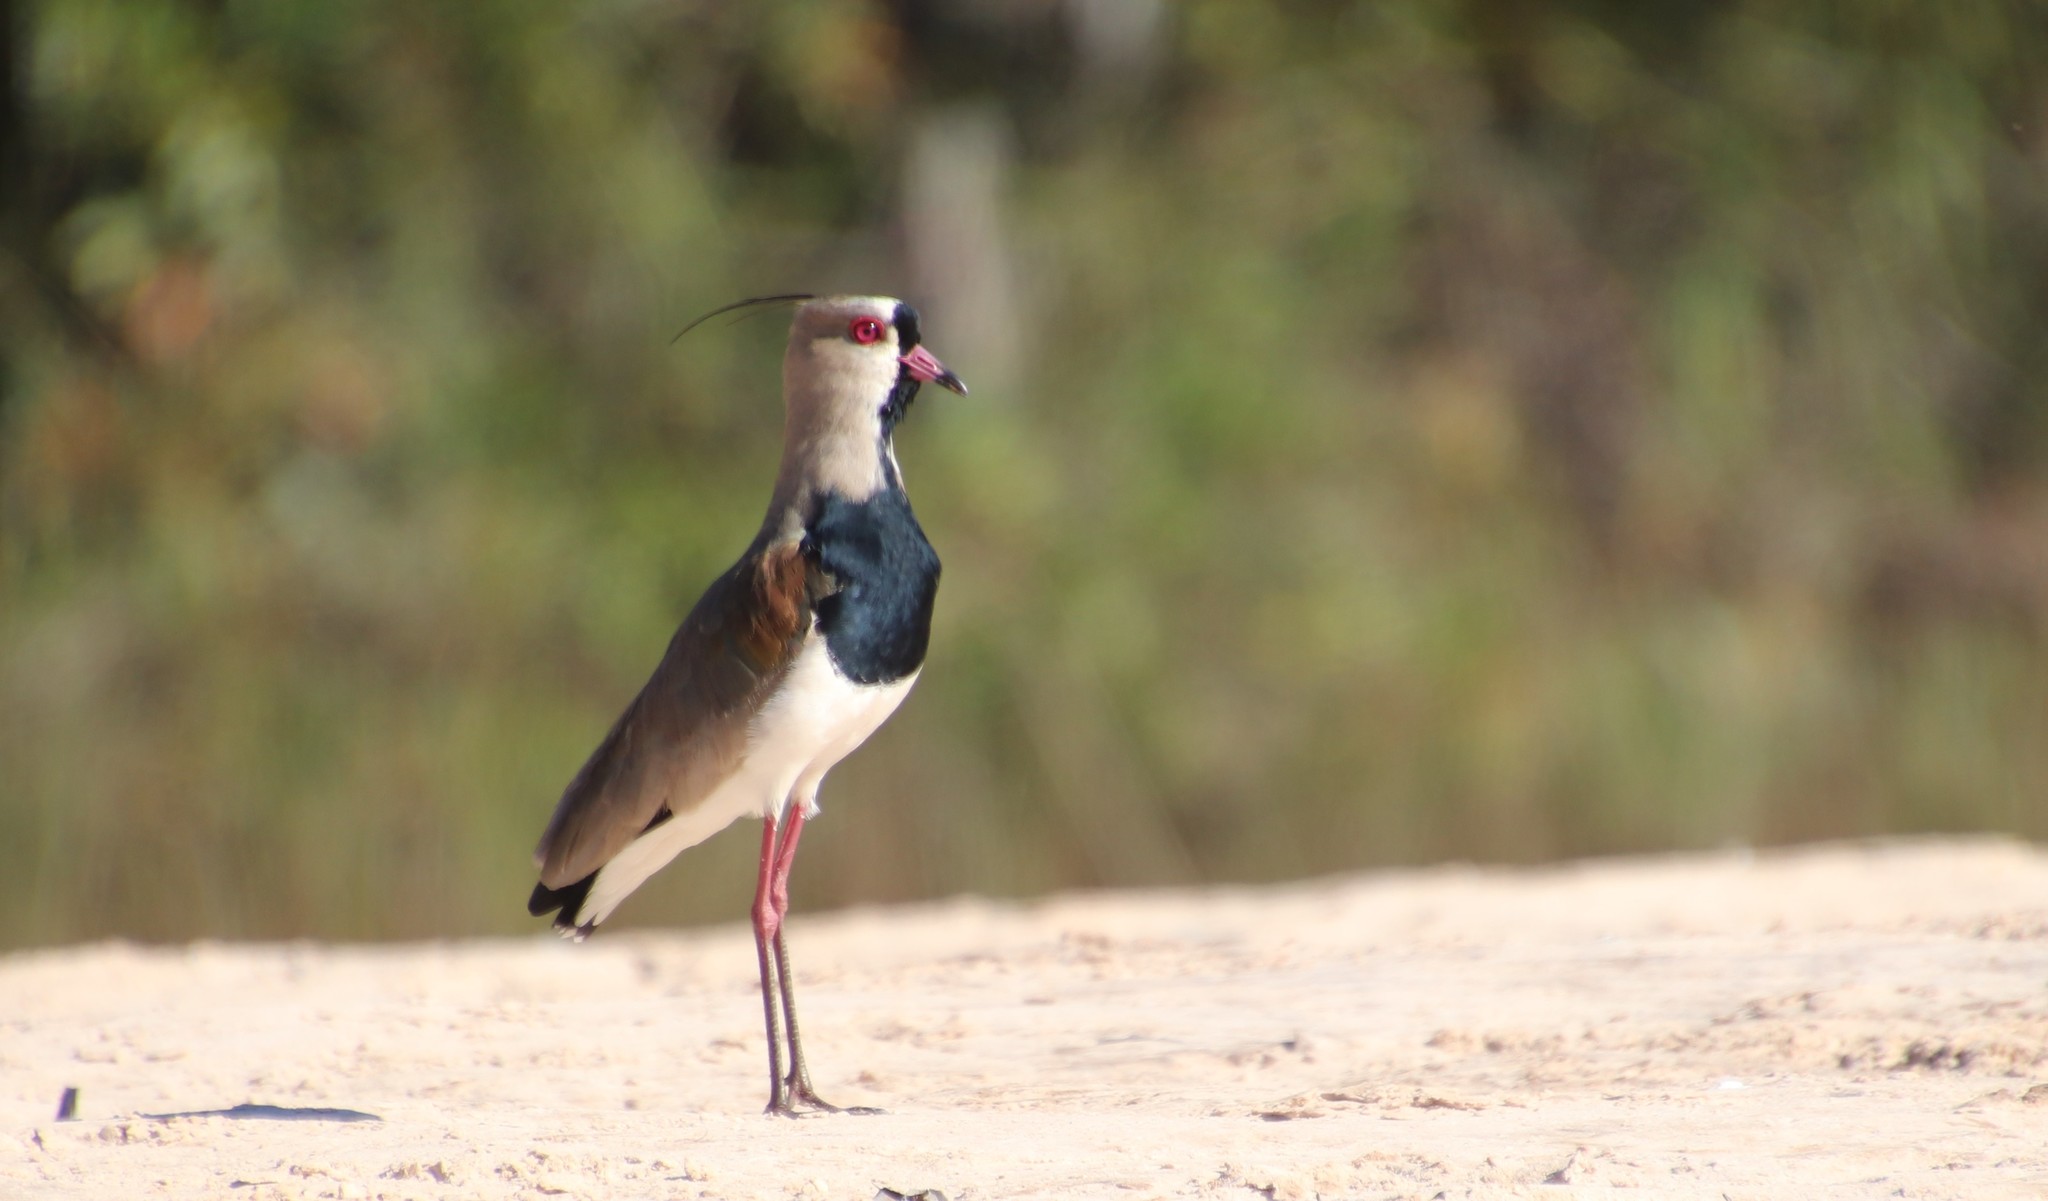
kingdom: Animalia
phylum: Chordata
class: Aves
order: Charadriiformes
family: Charadriidae
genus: Vanellus
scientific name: Vanellus chilensis
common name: Southern lapwing
